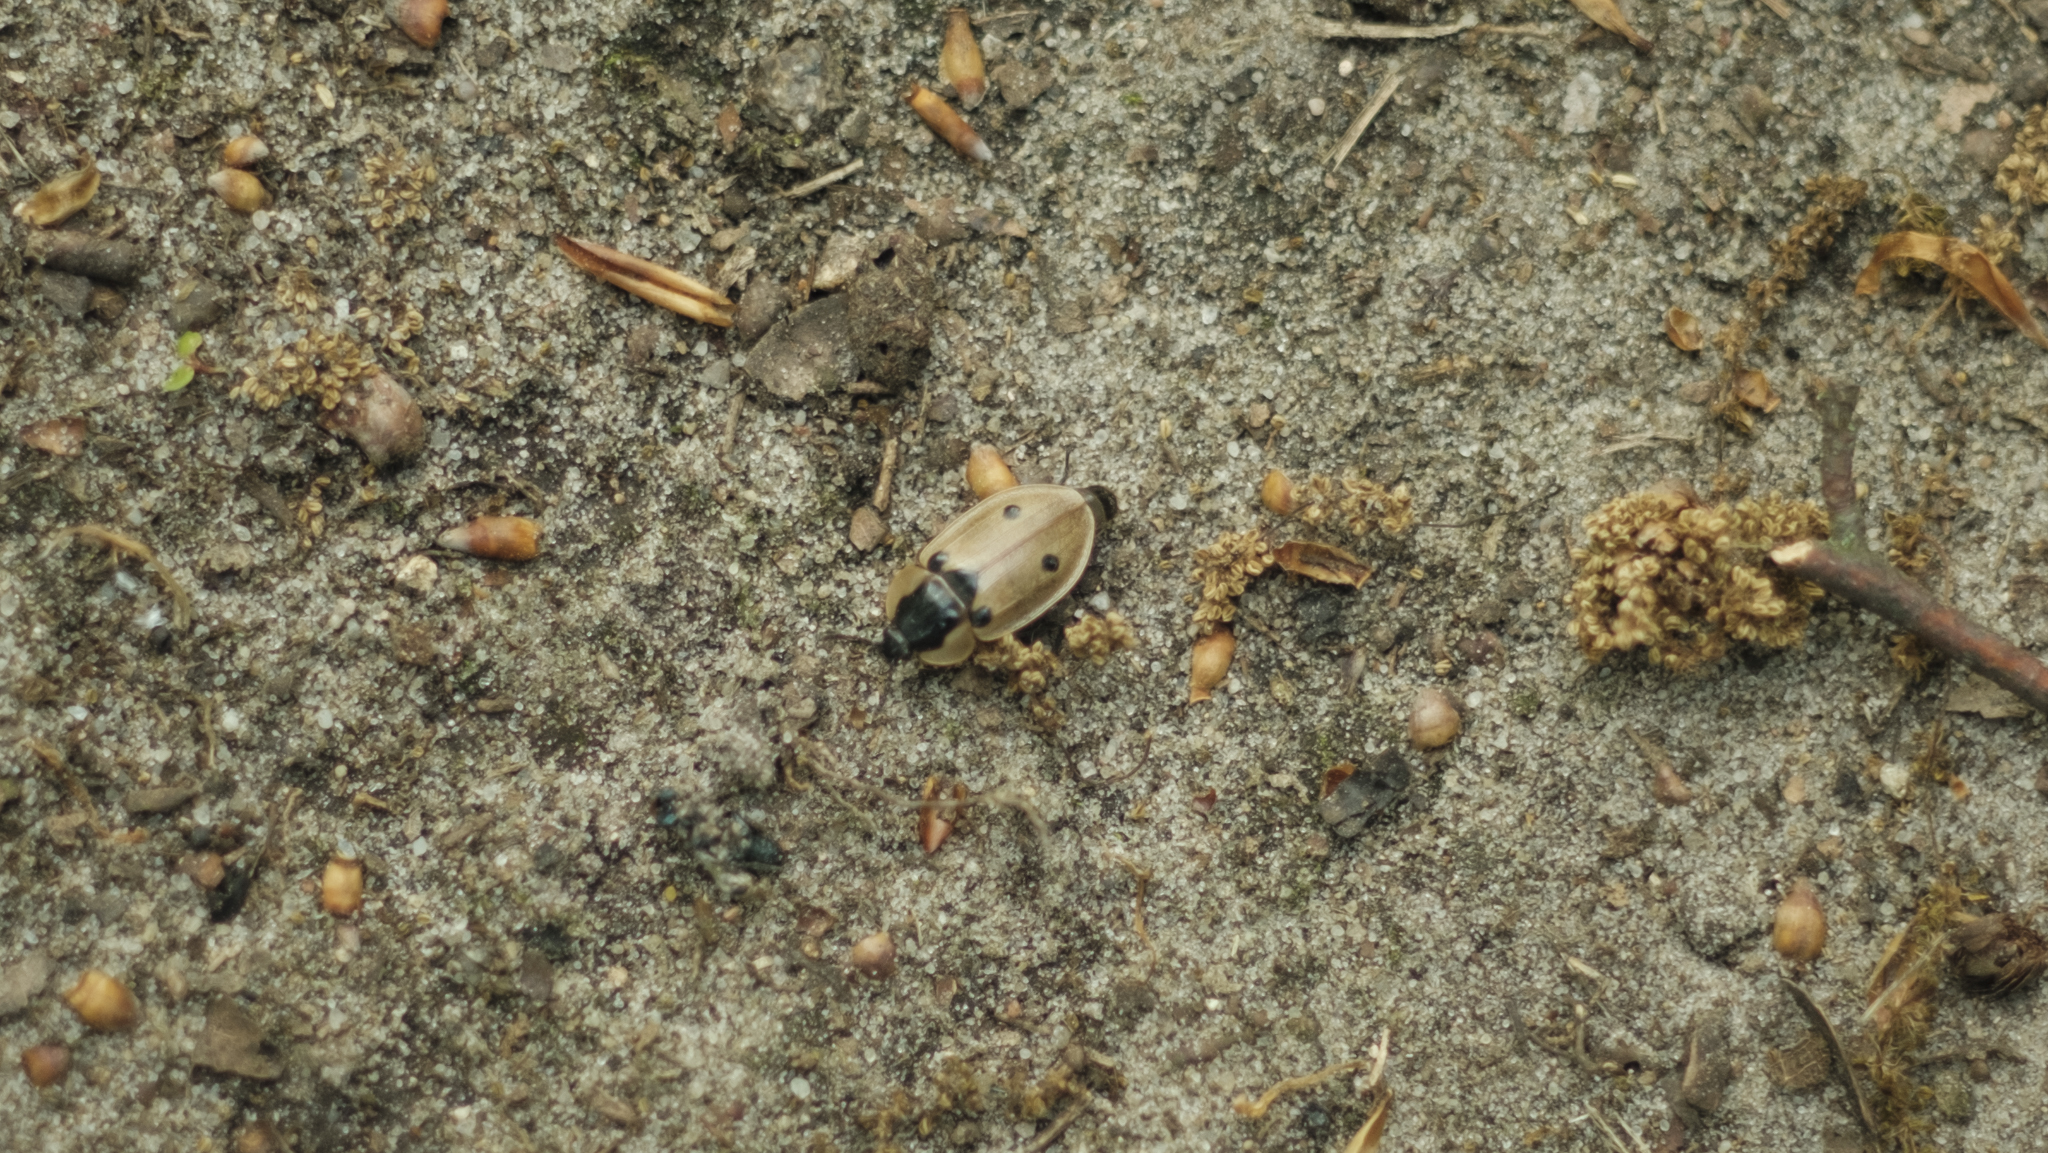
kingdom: Animalia
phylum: Arthropoda
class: Insecta
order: Coleoptera
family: Staphylinidae
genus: Dendroxena
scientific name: Dendroxena quadrimaculata
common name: Carrion beetle
